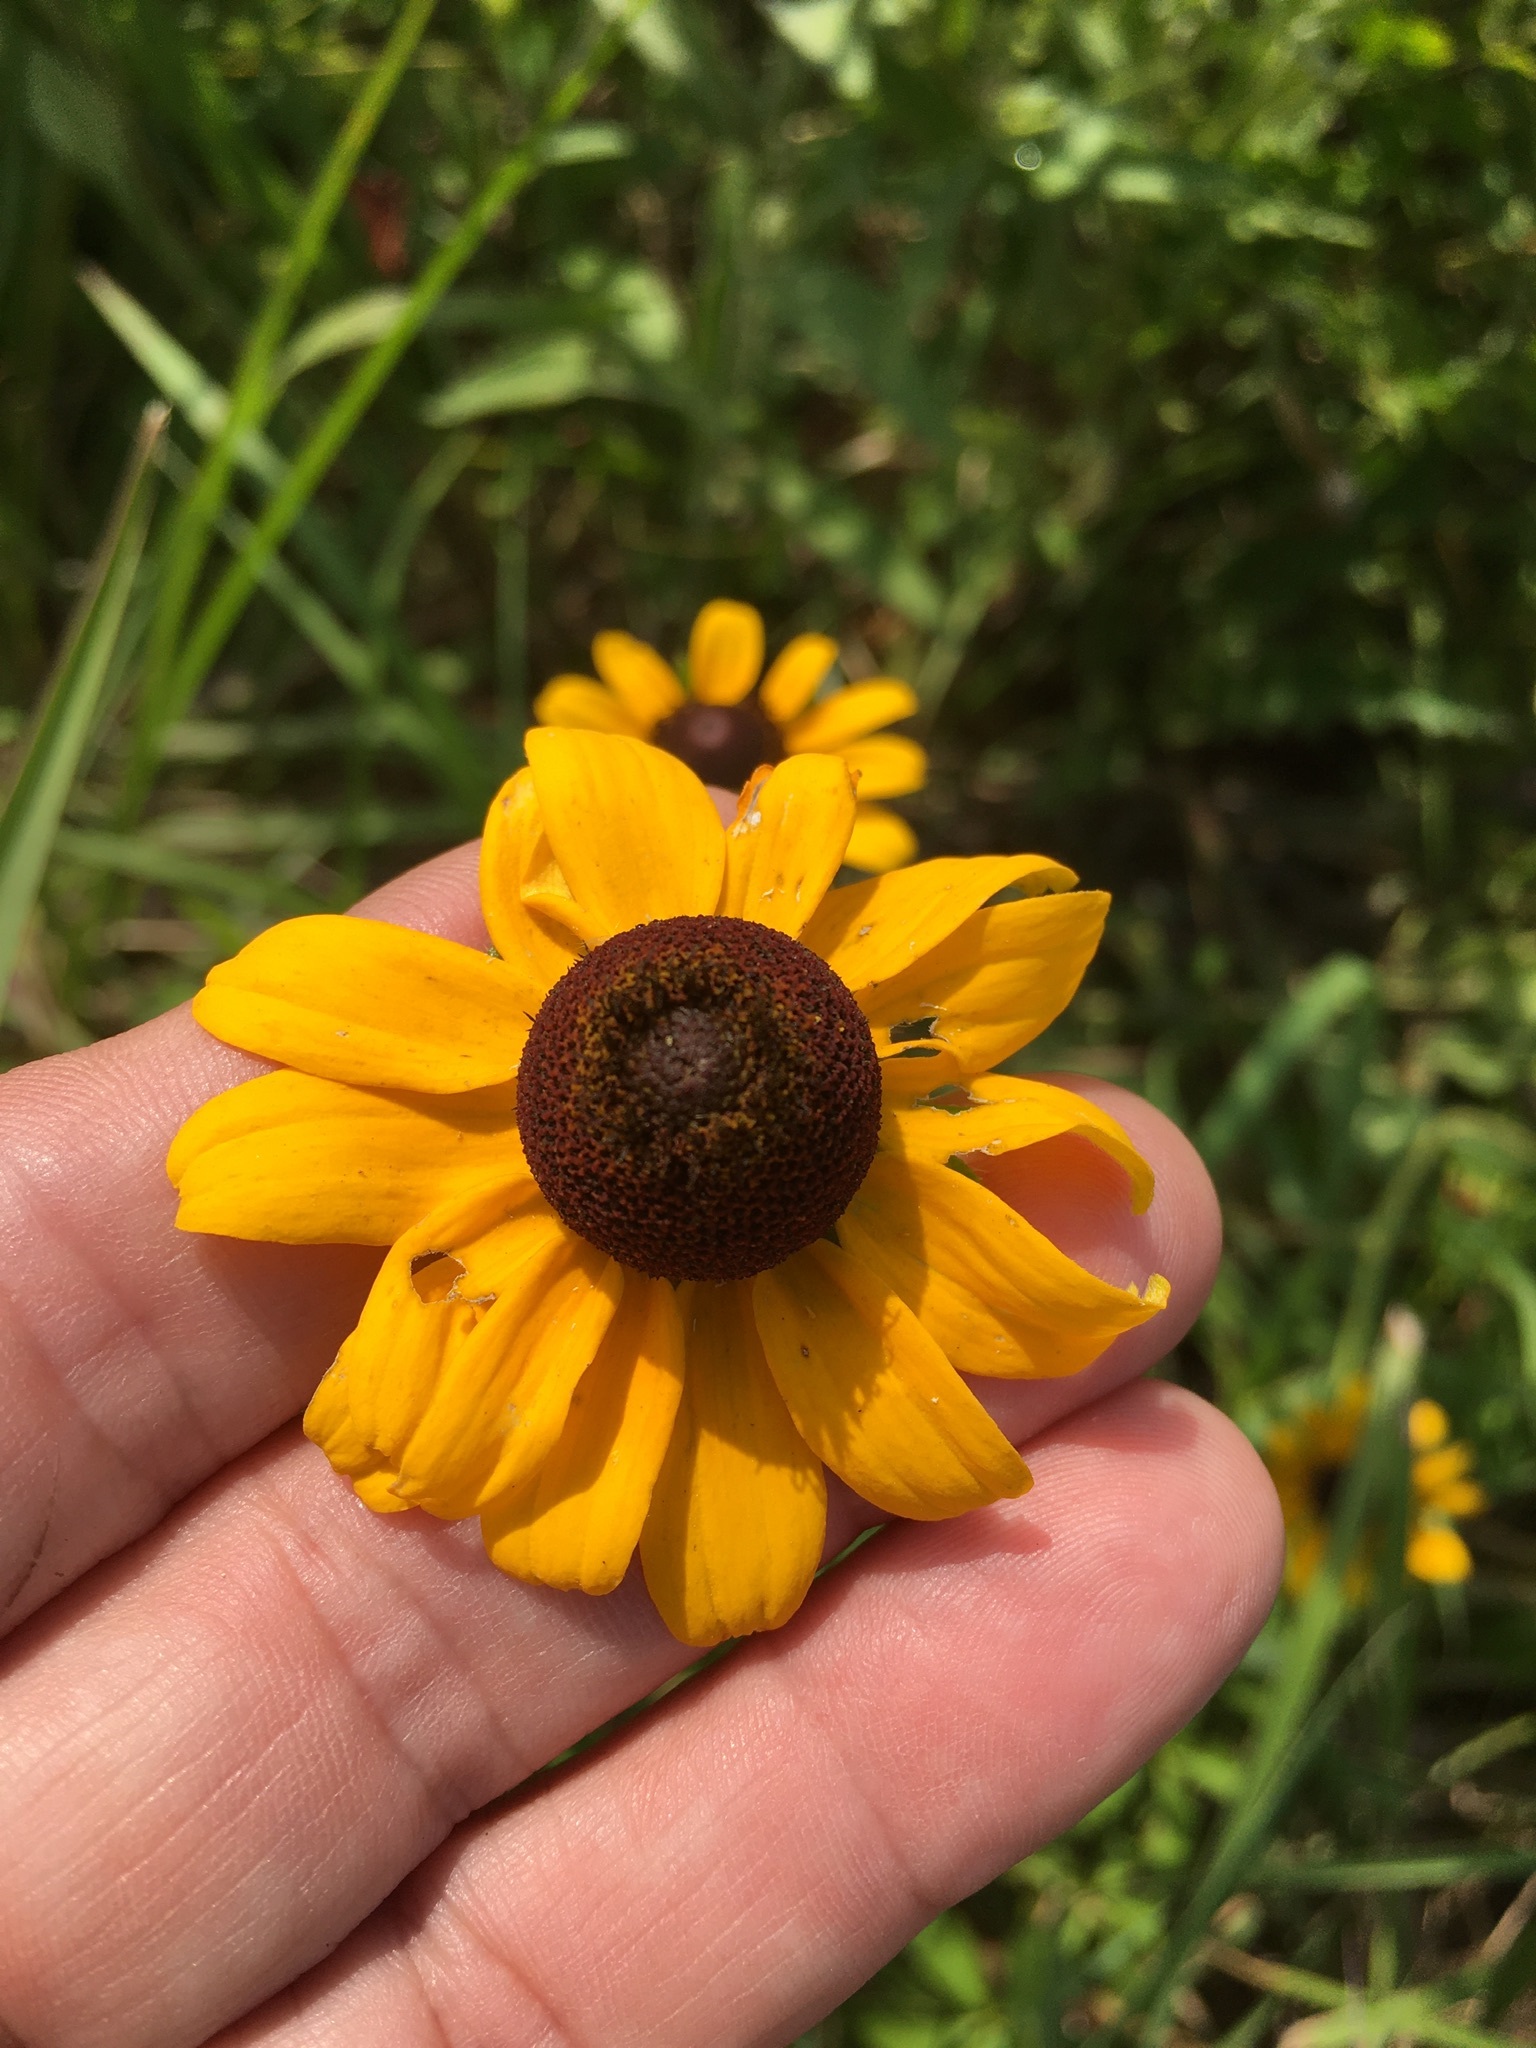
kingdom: Plantae
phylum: Tracheophyta
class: Magnoliopsida
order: Asterales
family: Asteraceae
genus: Rudbeckia
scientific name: Rudbeckia hirta
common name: Black-eyed-susan
